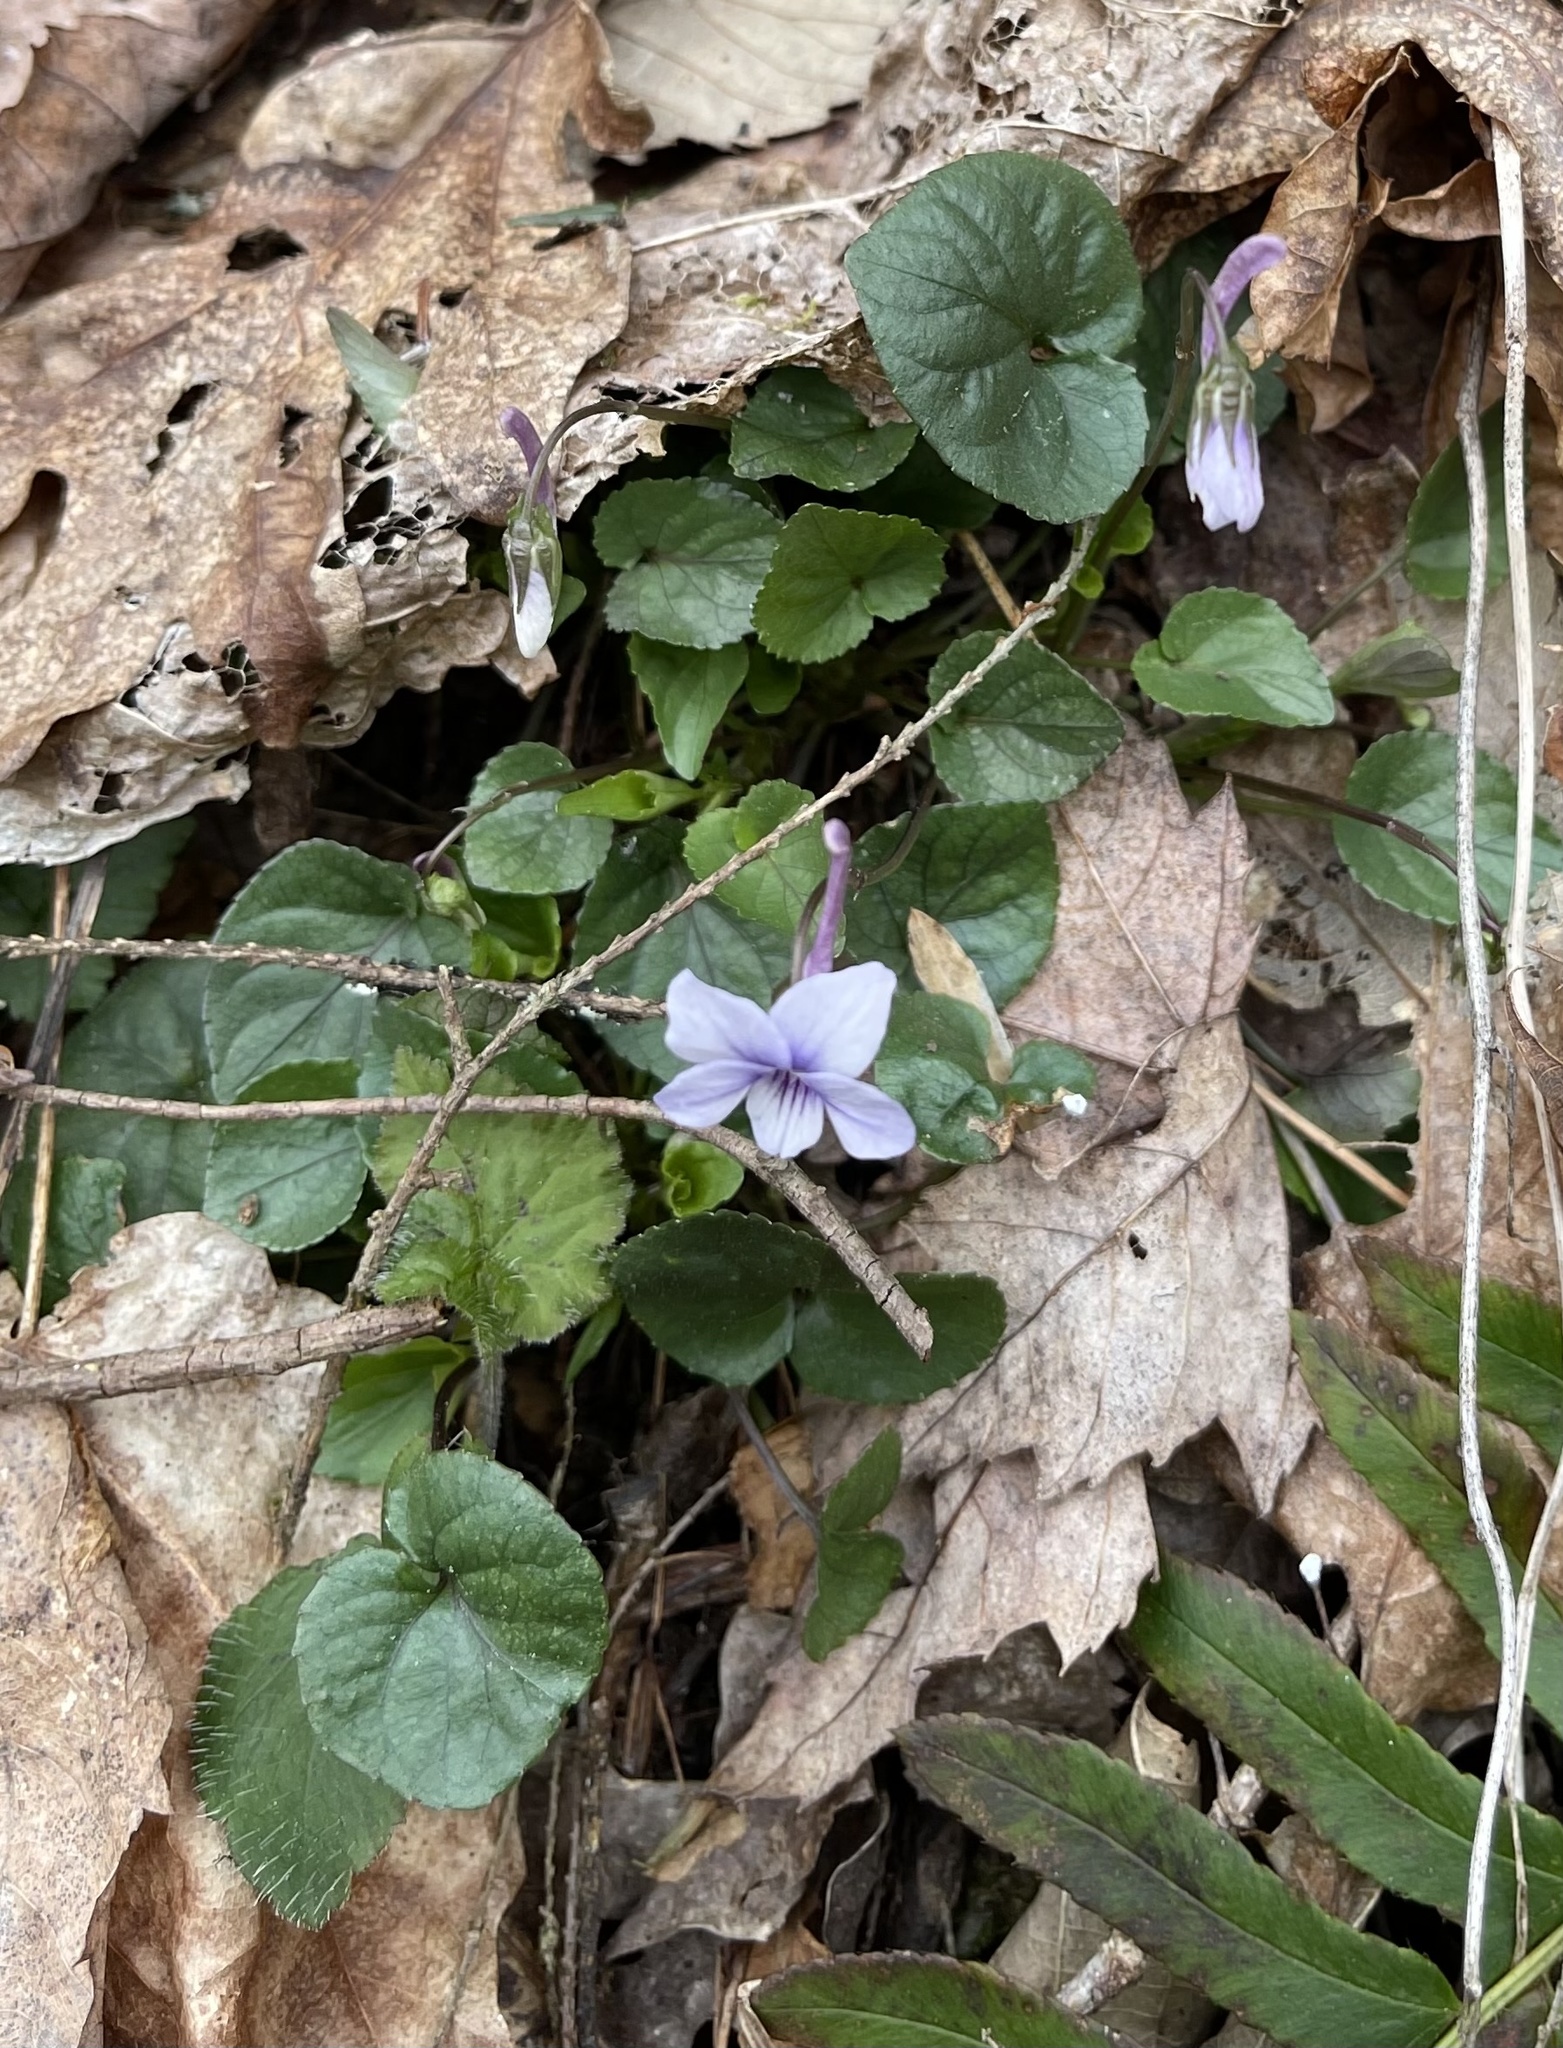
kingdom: Plantae
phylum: Tracheophyta
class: Magnoliopsida
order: Malpighiales
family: Violaceae
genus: Viola
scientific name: Viola rostrata
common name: Long-spur violet
